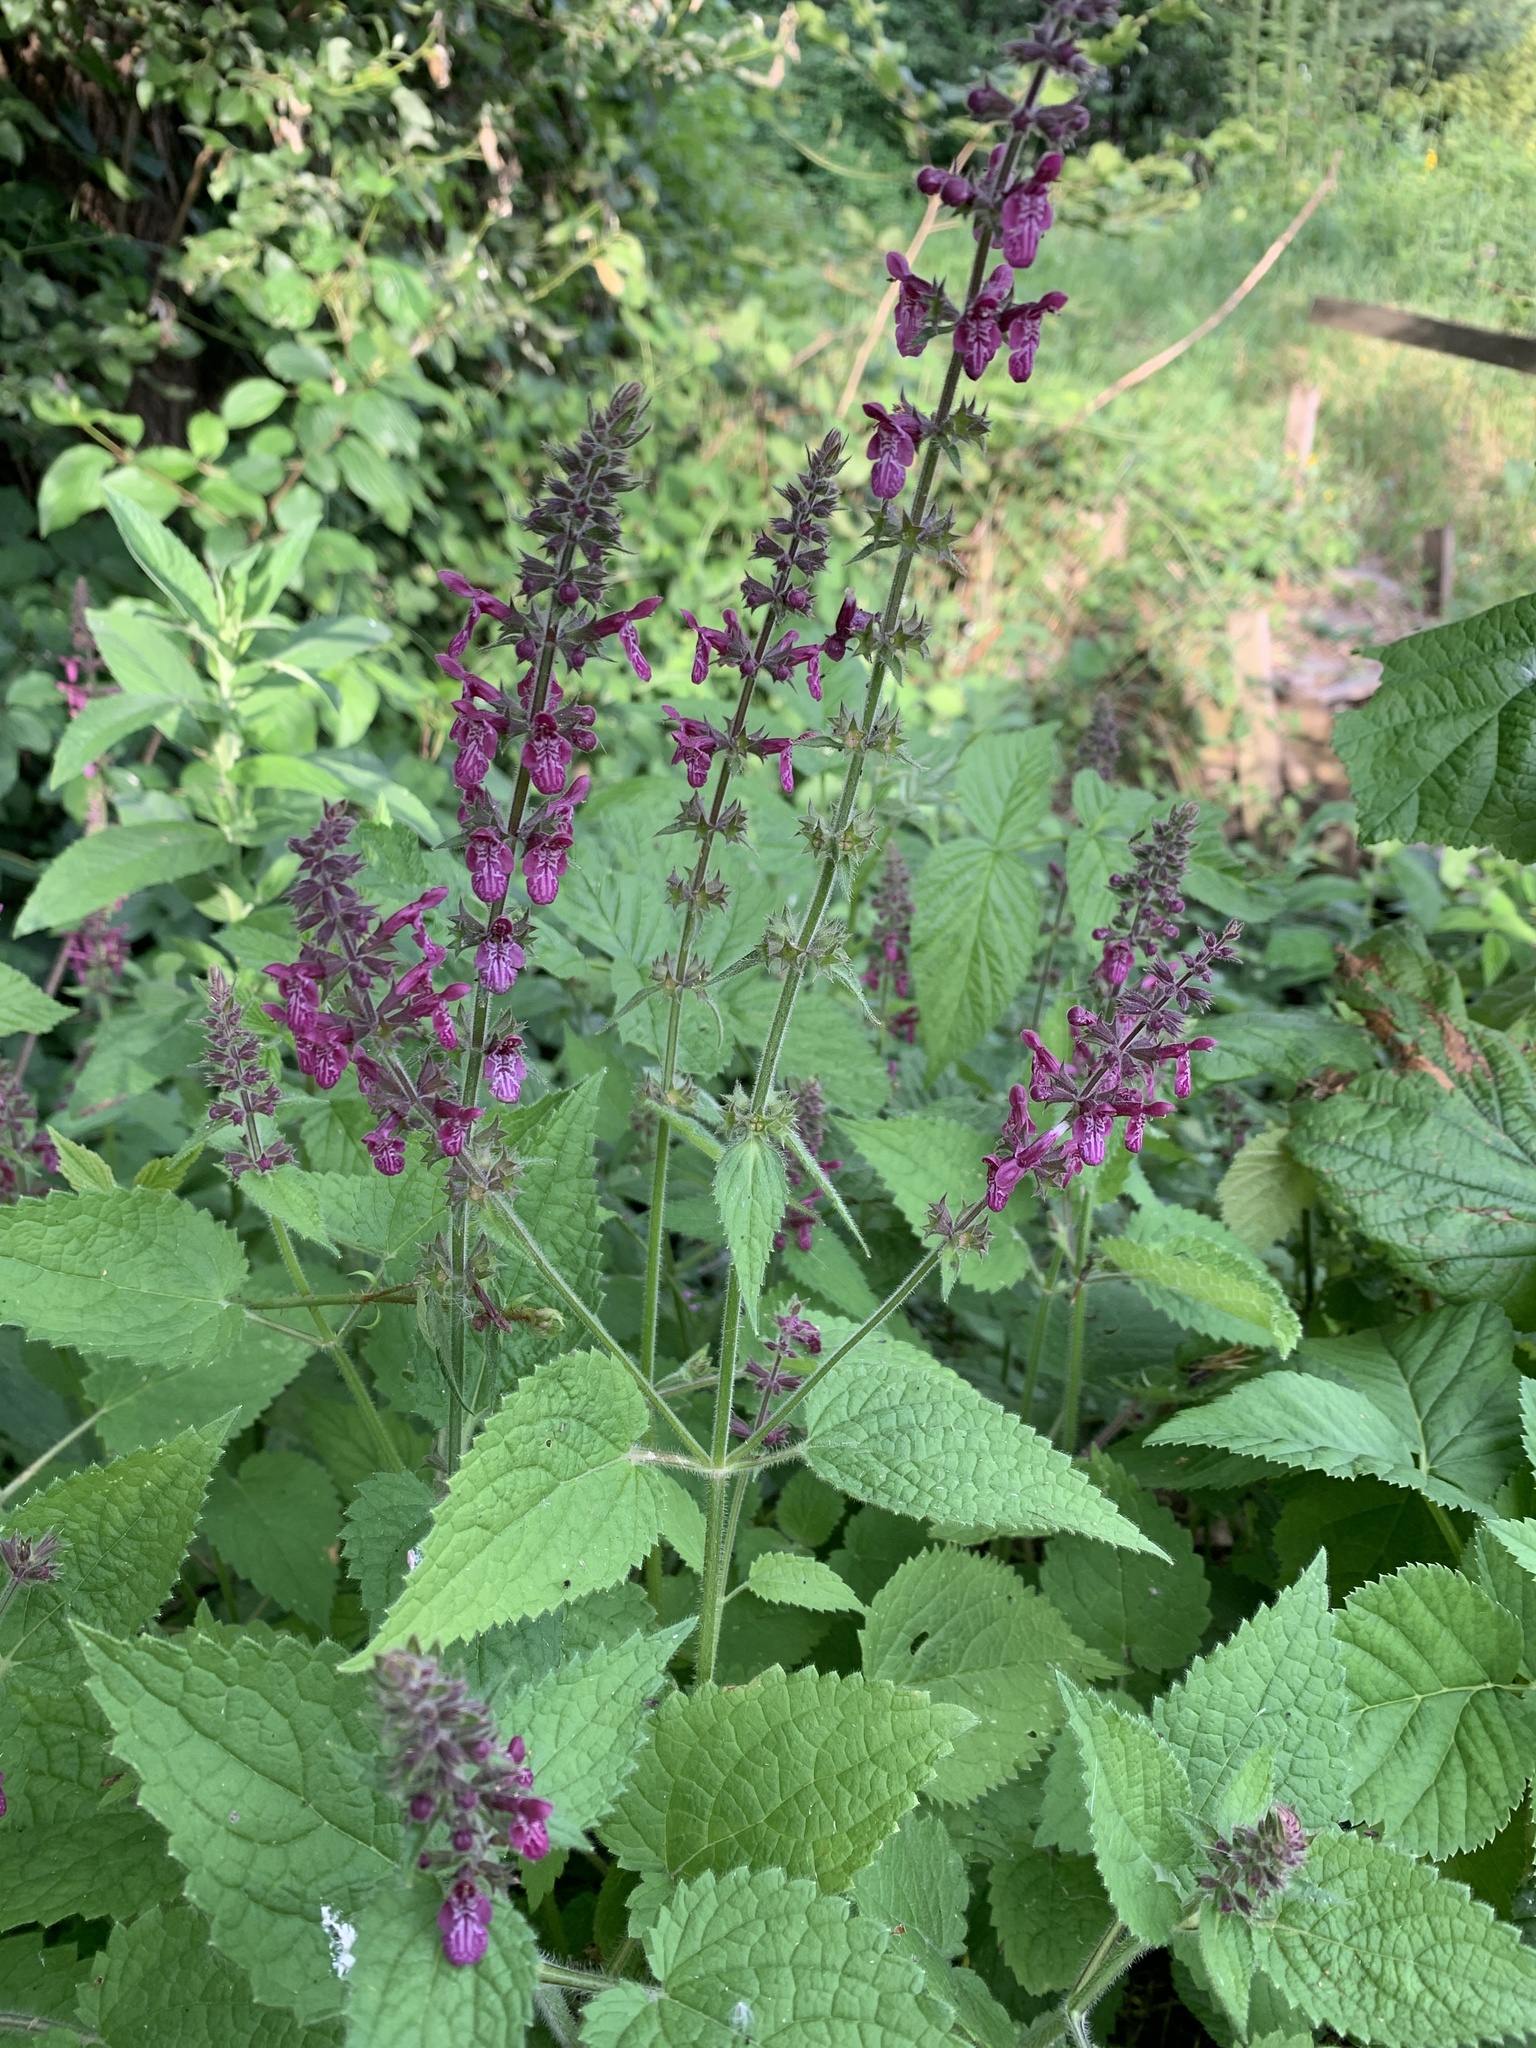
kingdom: Plantae
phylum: Tracheophyta
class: Magnoliopsida
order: Lamiales
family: Lamiaceae
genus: Stachys
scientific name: Stachys sylvatica
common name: Hedge woundwort
